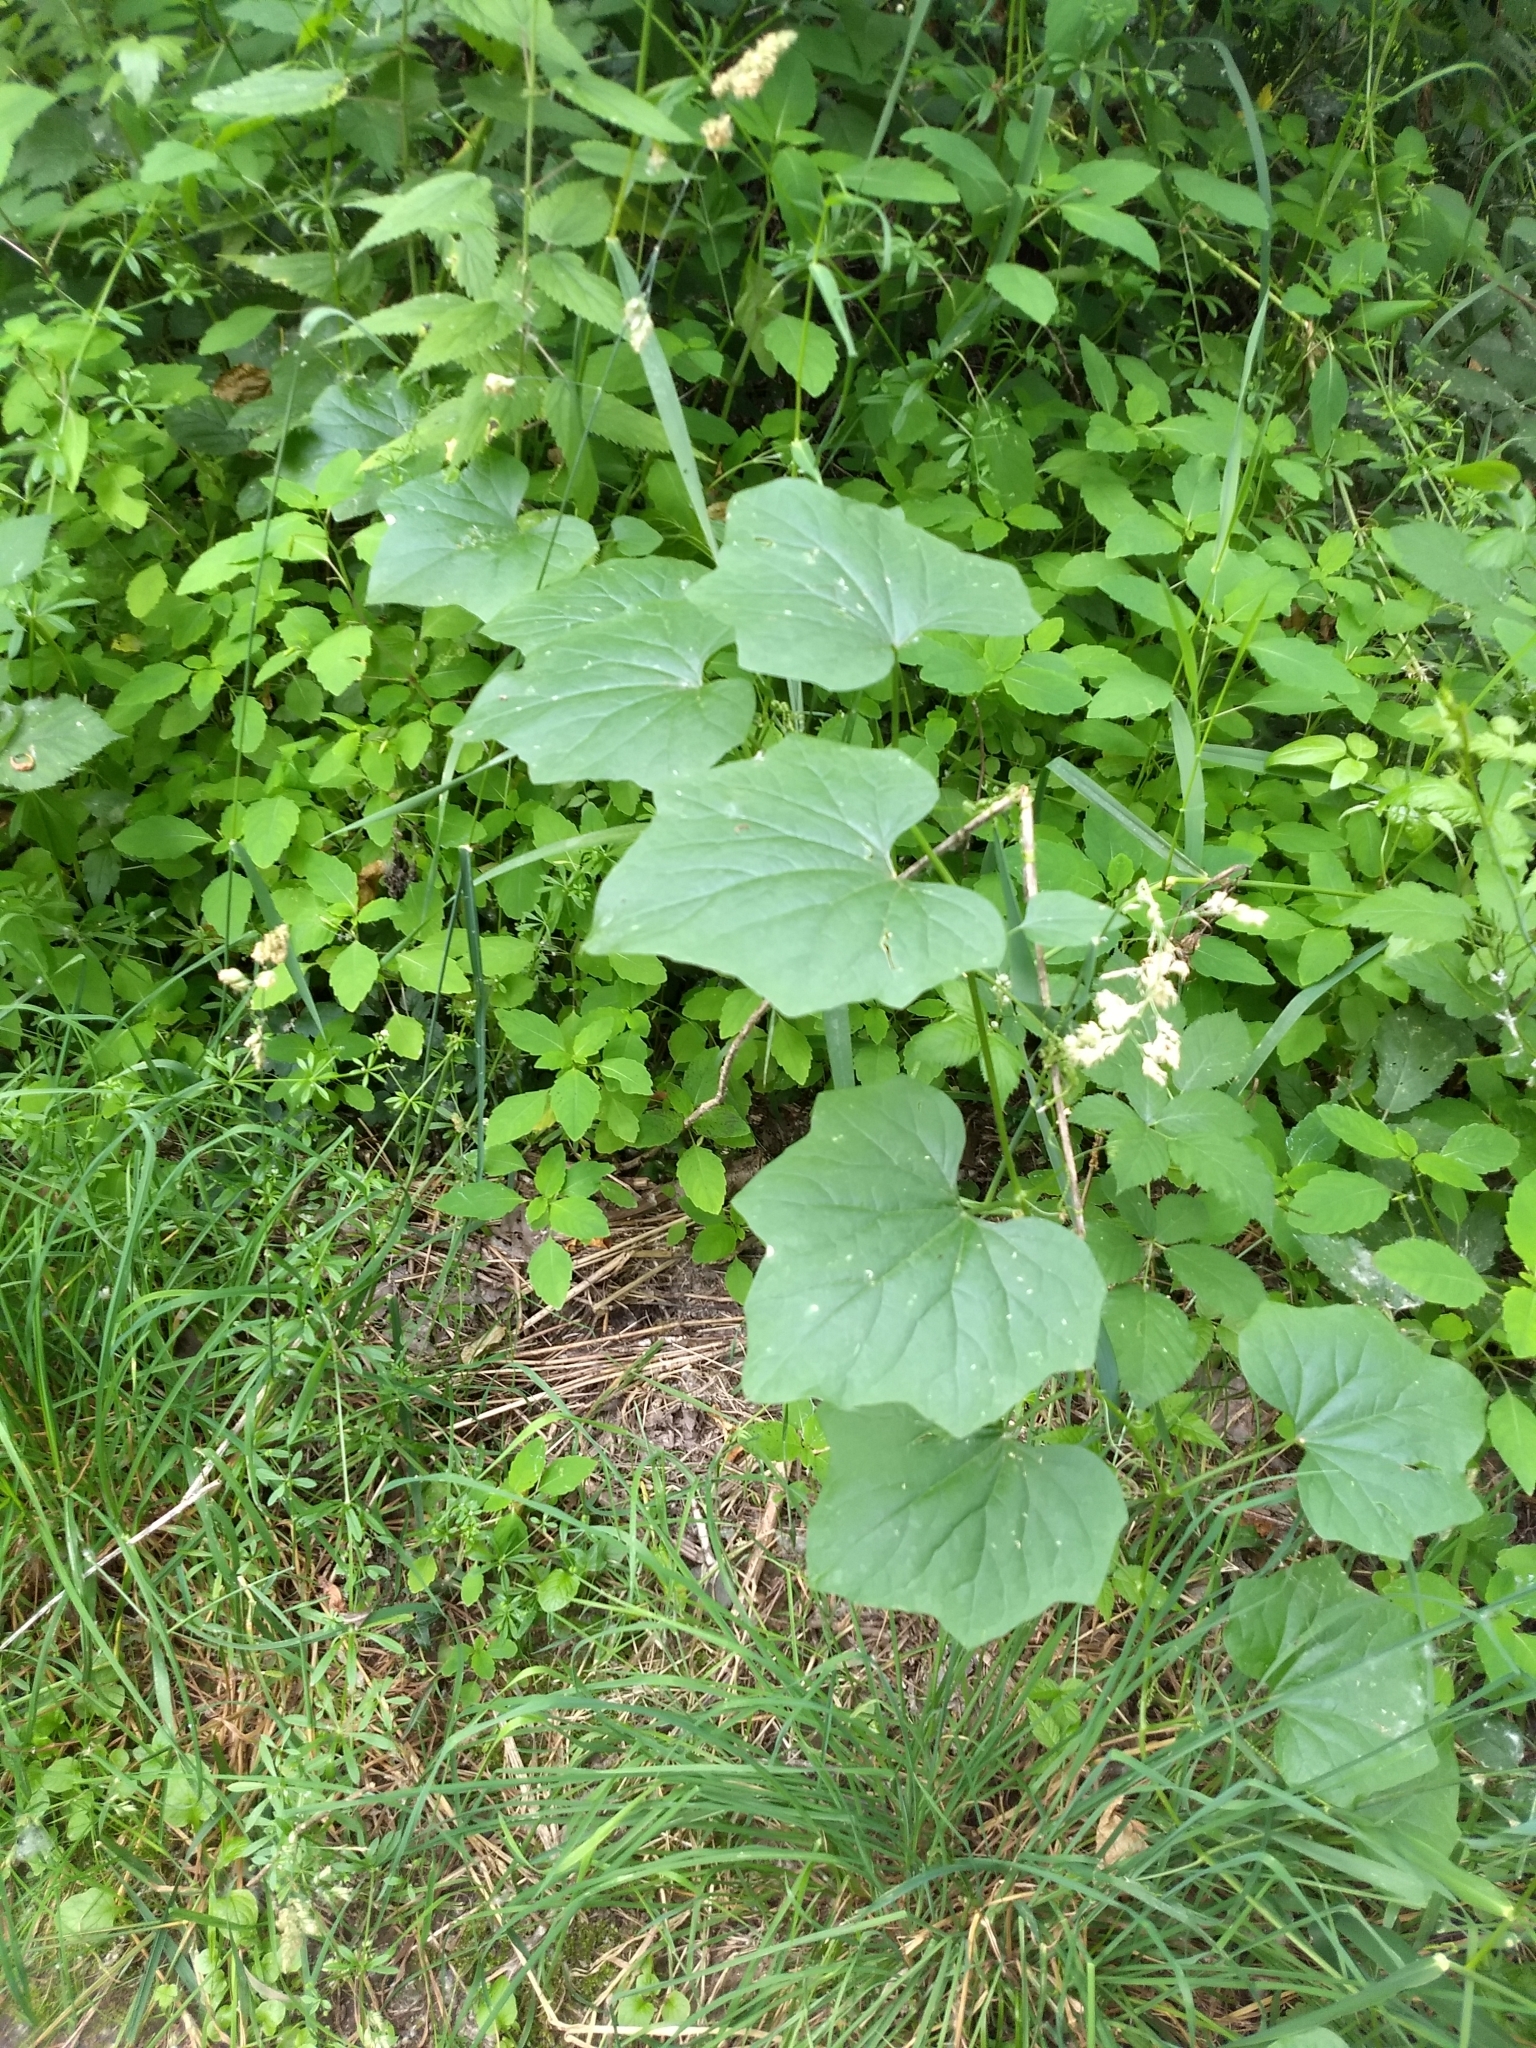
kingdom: Plantae
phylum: Tracheophyta
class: Magnoliopsida
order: Cucurbitales
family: Cucurbitaceae
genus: Marah
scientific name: Marah oregana
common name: Coastal manroot
